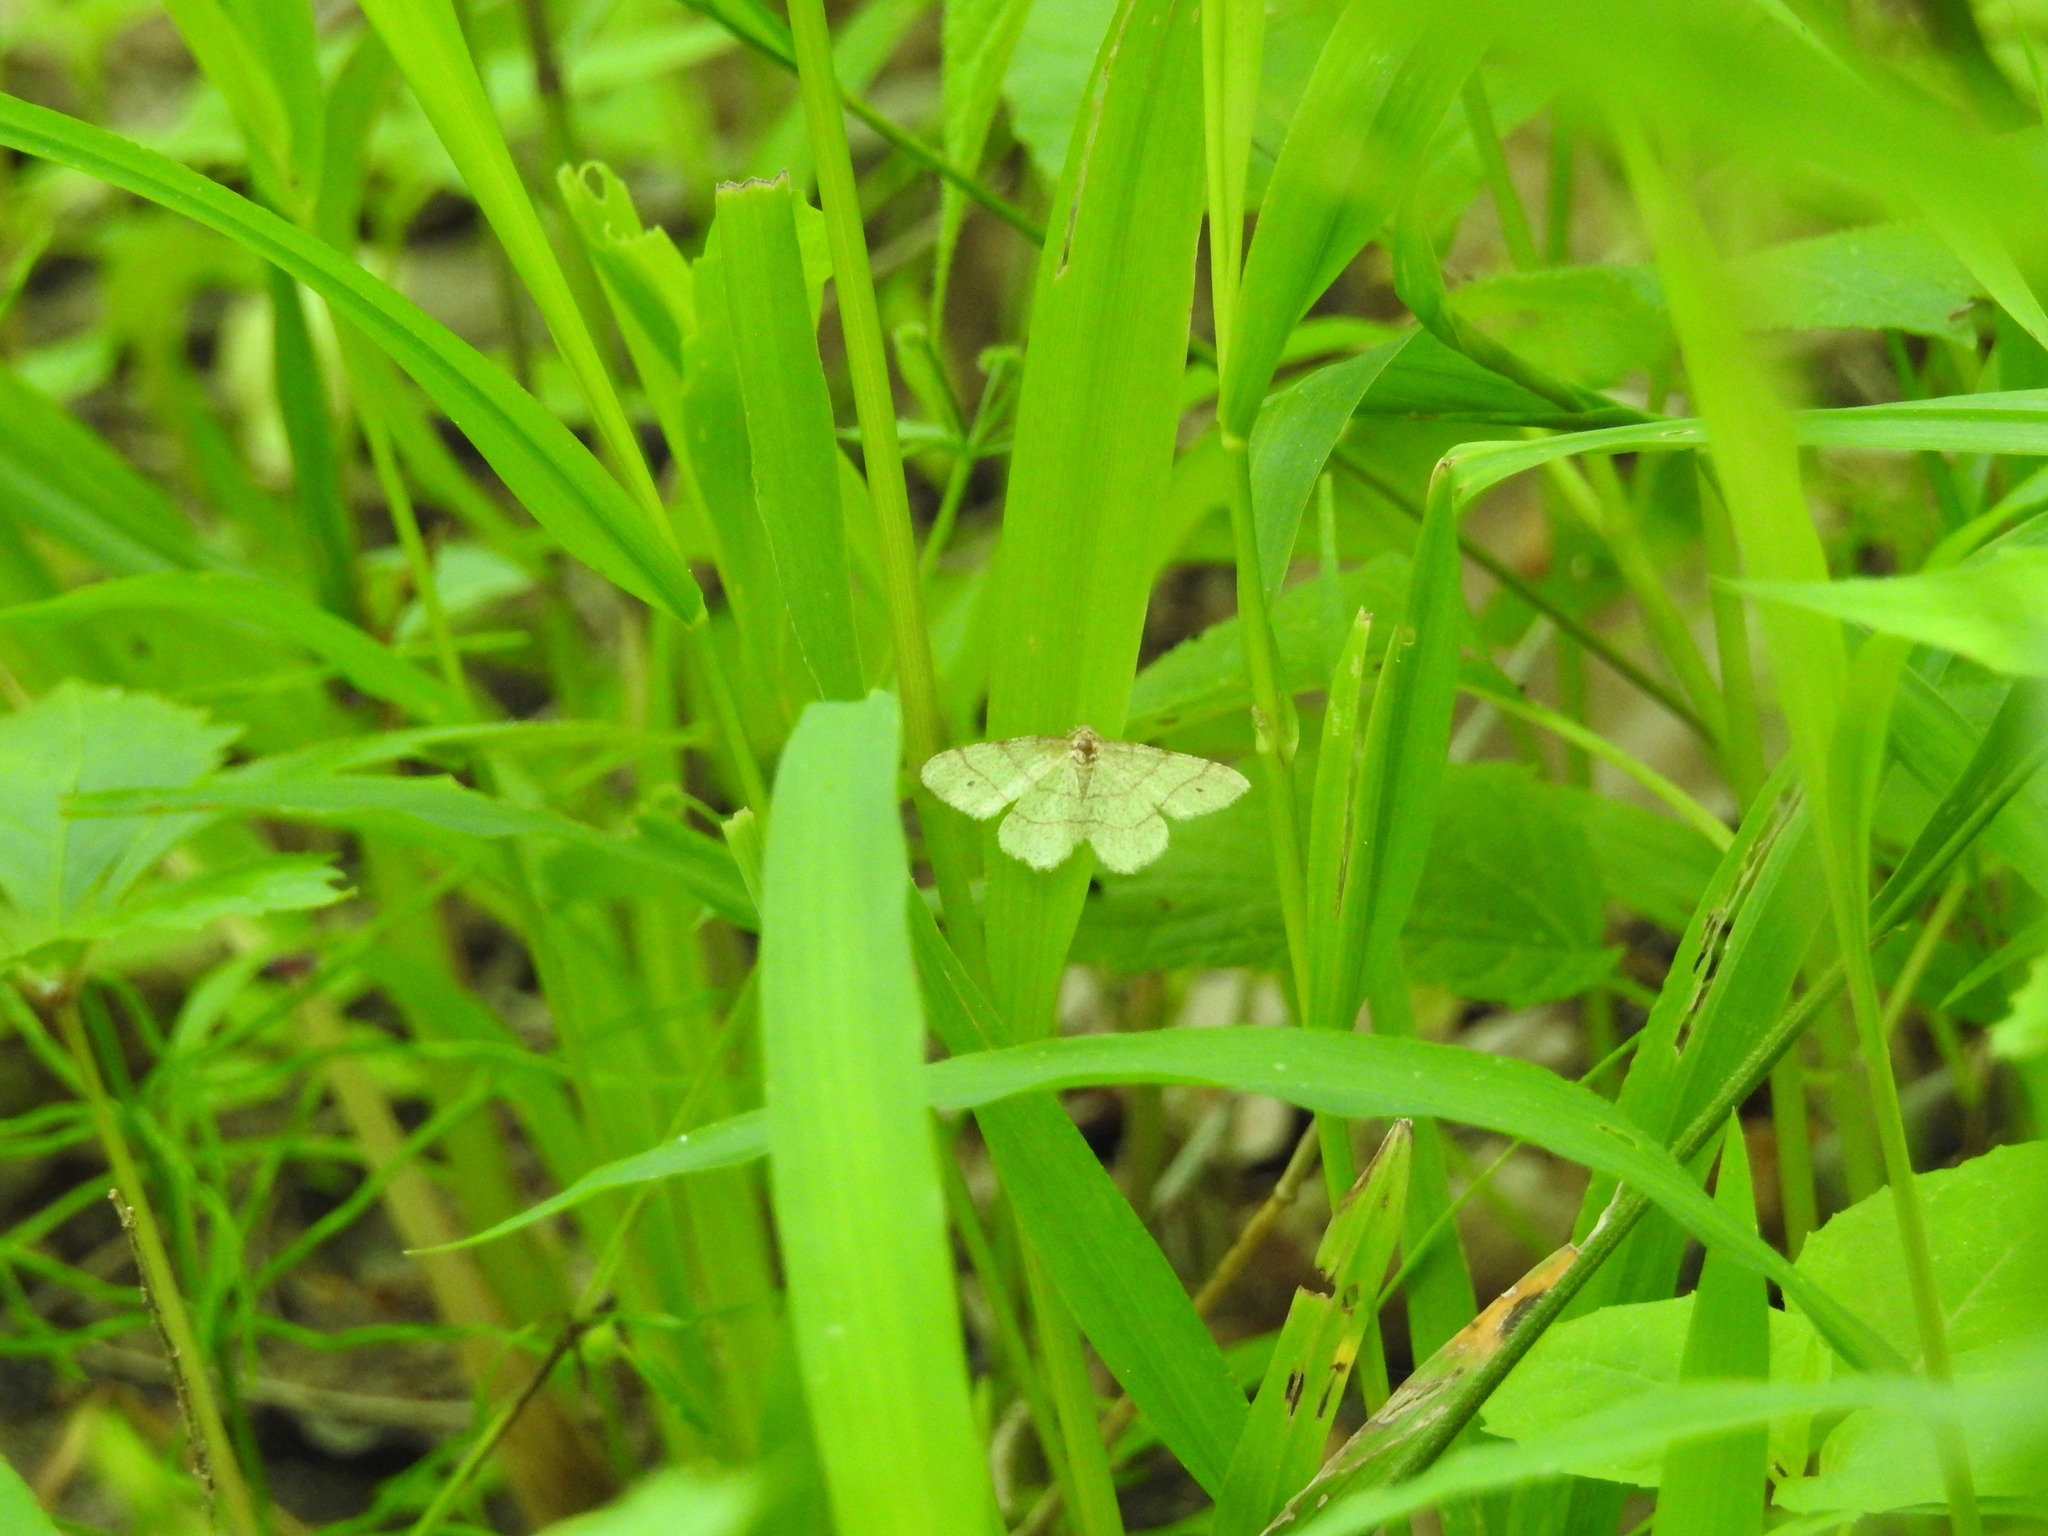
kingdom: Animalia
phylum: Arthropoda
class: Insecta
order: Lepidoptera
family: Geometridae
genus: Trigrammia
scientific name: Trigrammia quadrinotaria
